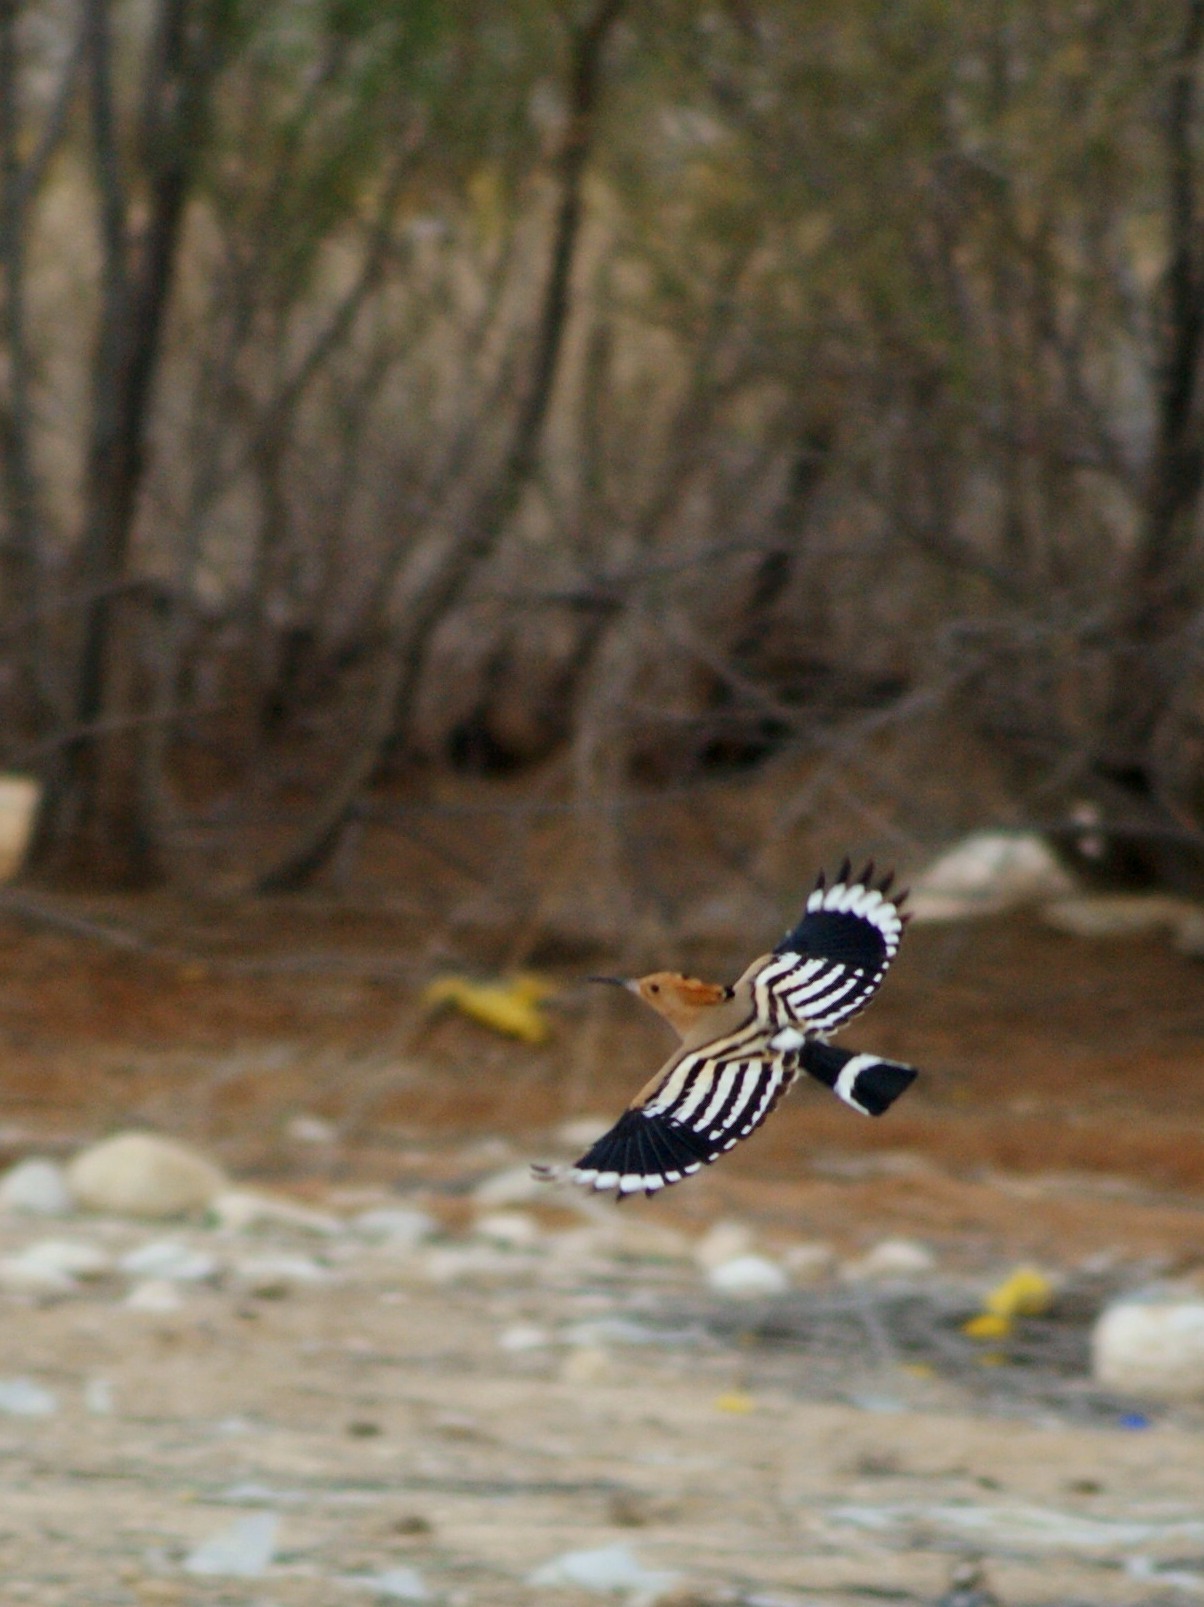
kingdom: Animalia
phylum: Chordata
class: Aves
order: Bucerotiformes
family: Upupidae
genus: Upupa
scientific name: Upupa epops
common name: Eurasian hoopoe
